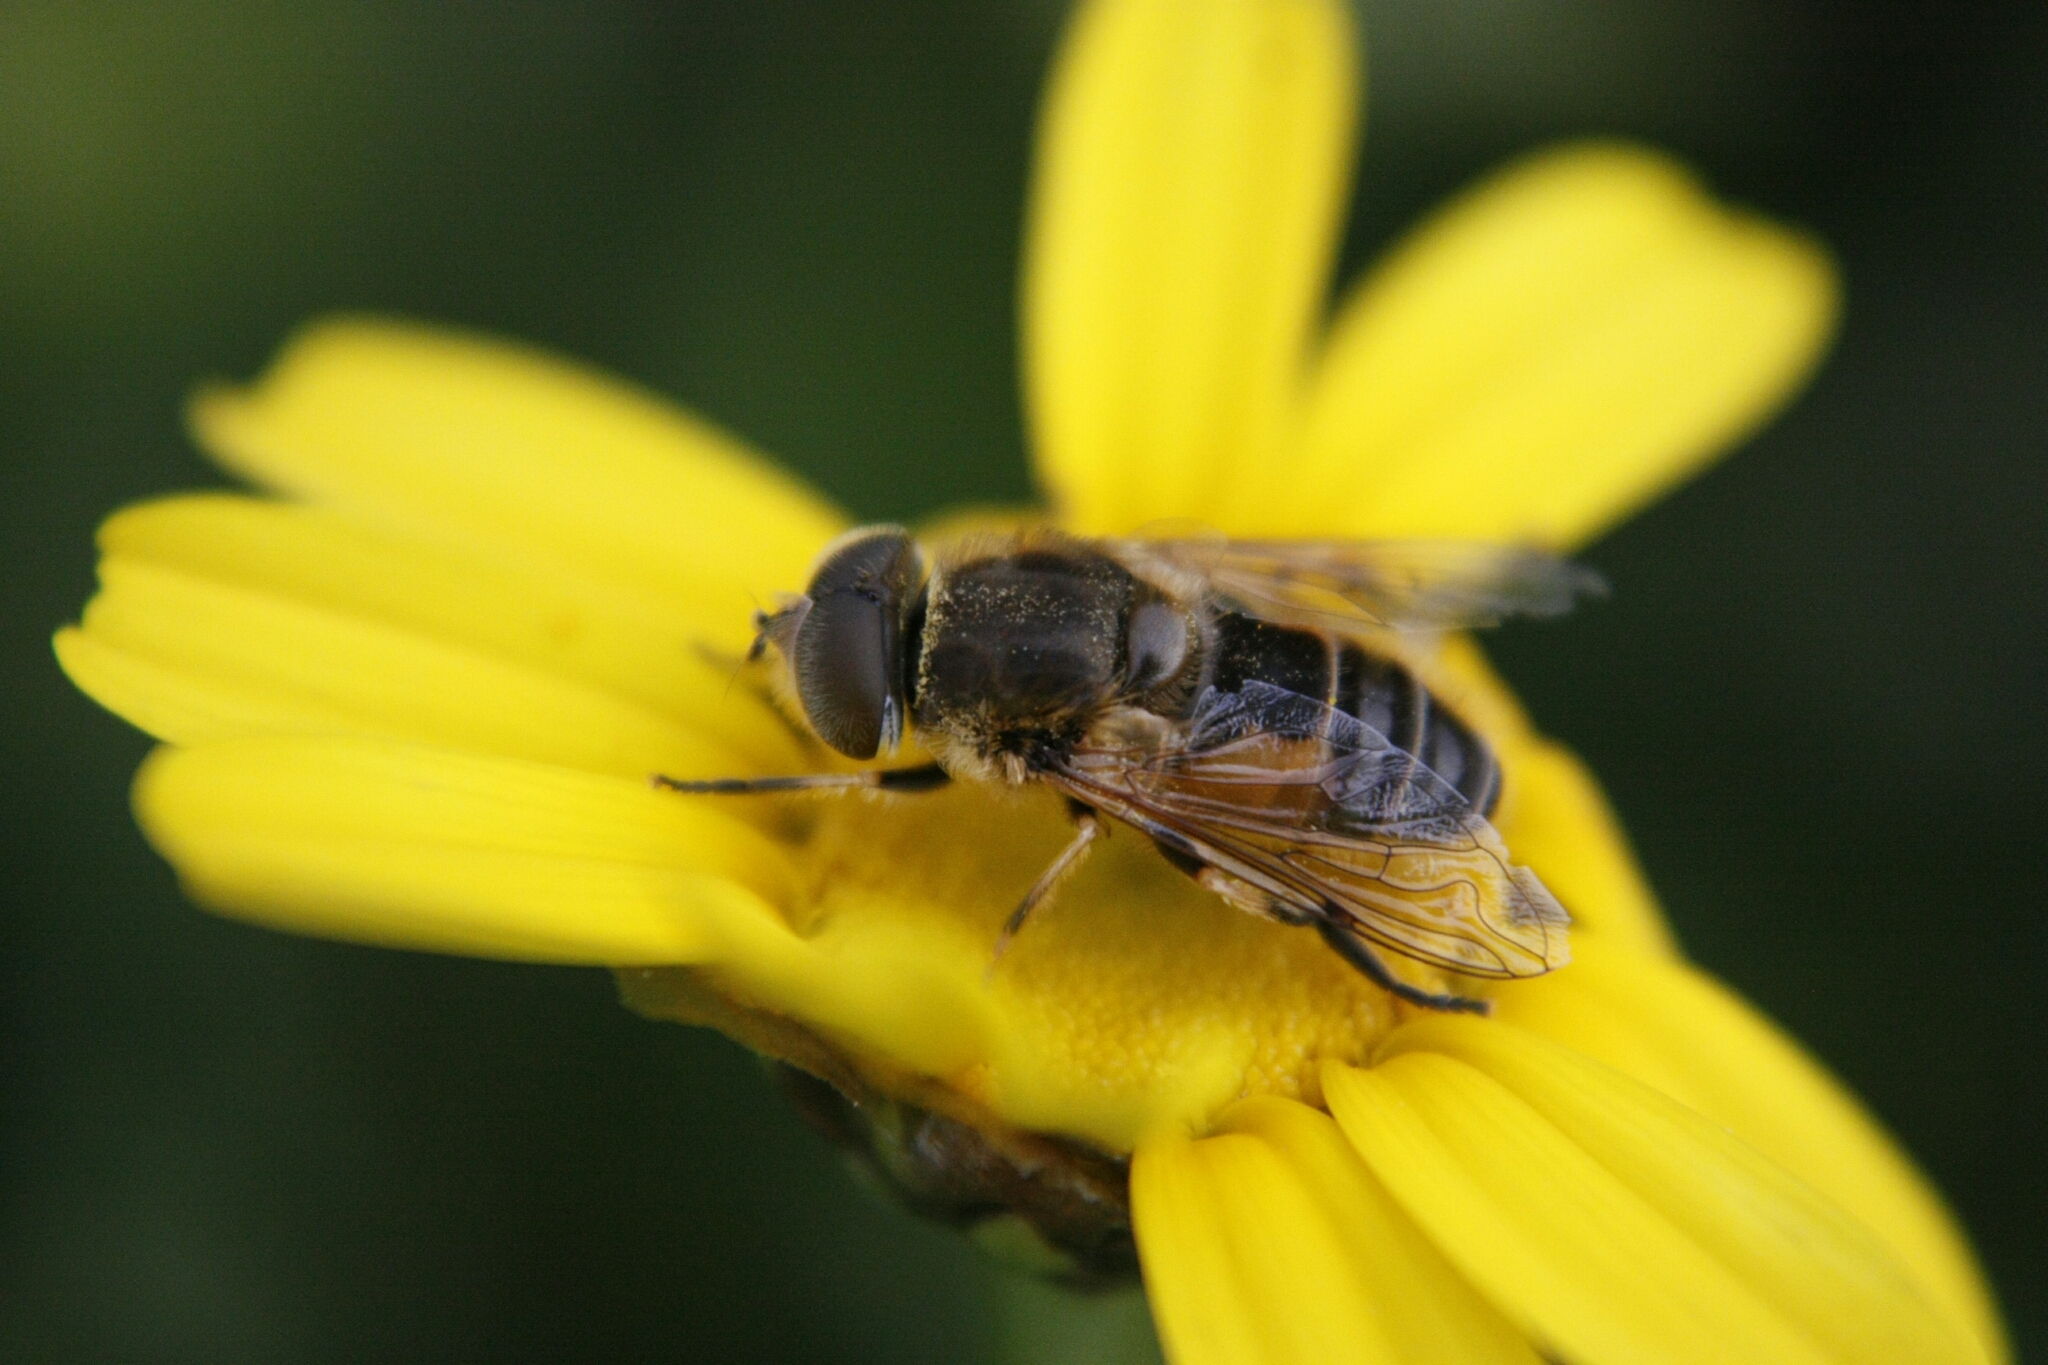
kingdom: Animalia
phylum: Arthropoda
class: Insecta
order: Diptera
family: Syrphidae
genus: Eristalis
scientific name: Eristalis arbustorum
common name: Hover fly
